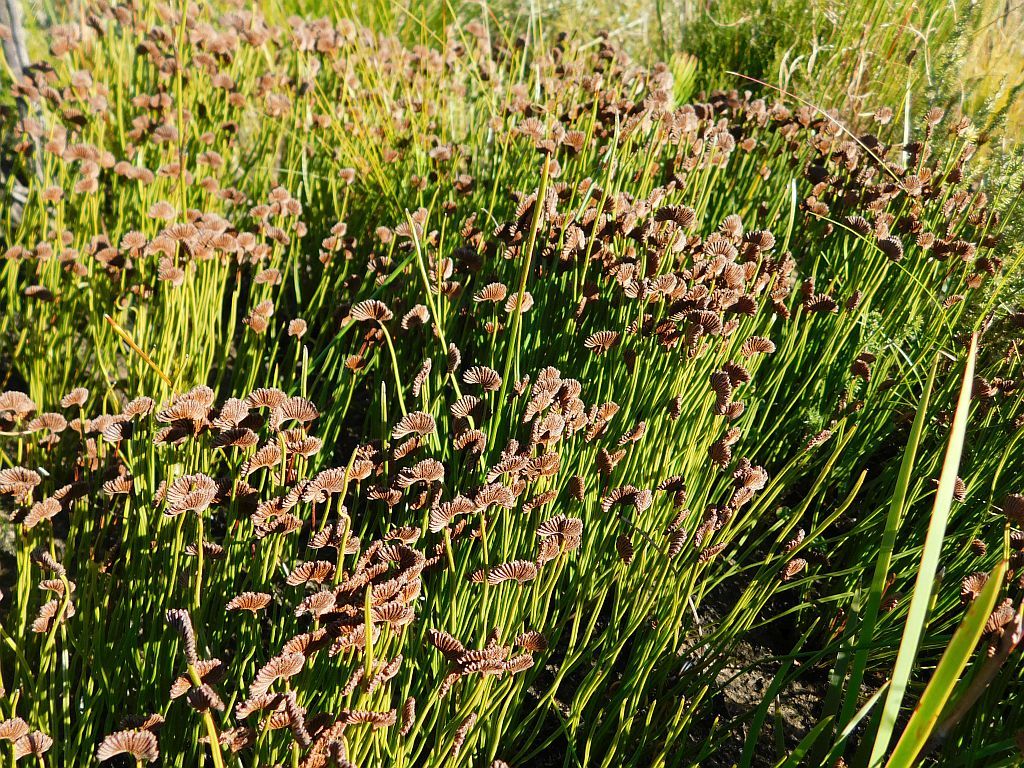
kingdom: Plantae
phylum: Tracheophyta
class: Polypodiopsida
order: Schizaeales
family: Schizaeaceae
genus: Schizaea
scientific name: Schizaea pectinata
